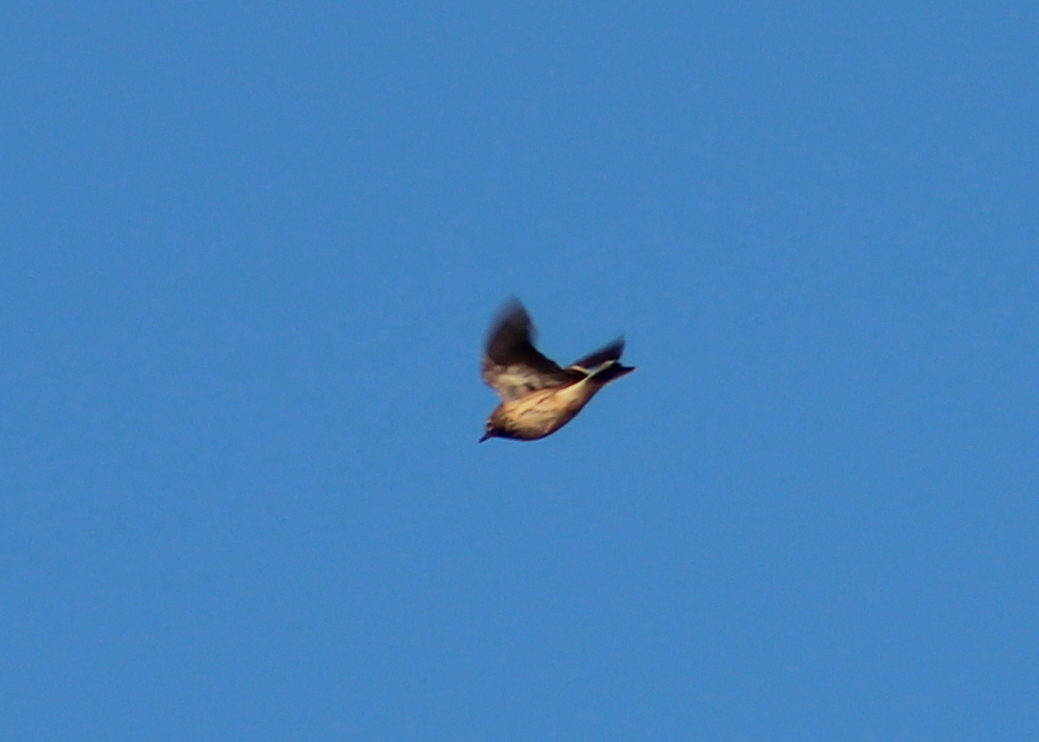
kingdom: Animalia
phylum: Chordata
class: Aves
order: Passeriformes
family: Motacillidae
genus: Anthus
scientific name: Anthus rubescens
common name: Buff-bellied pipit
